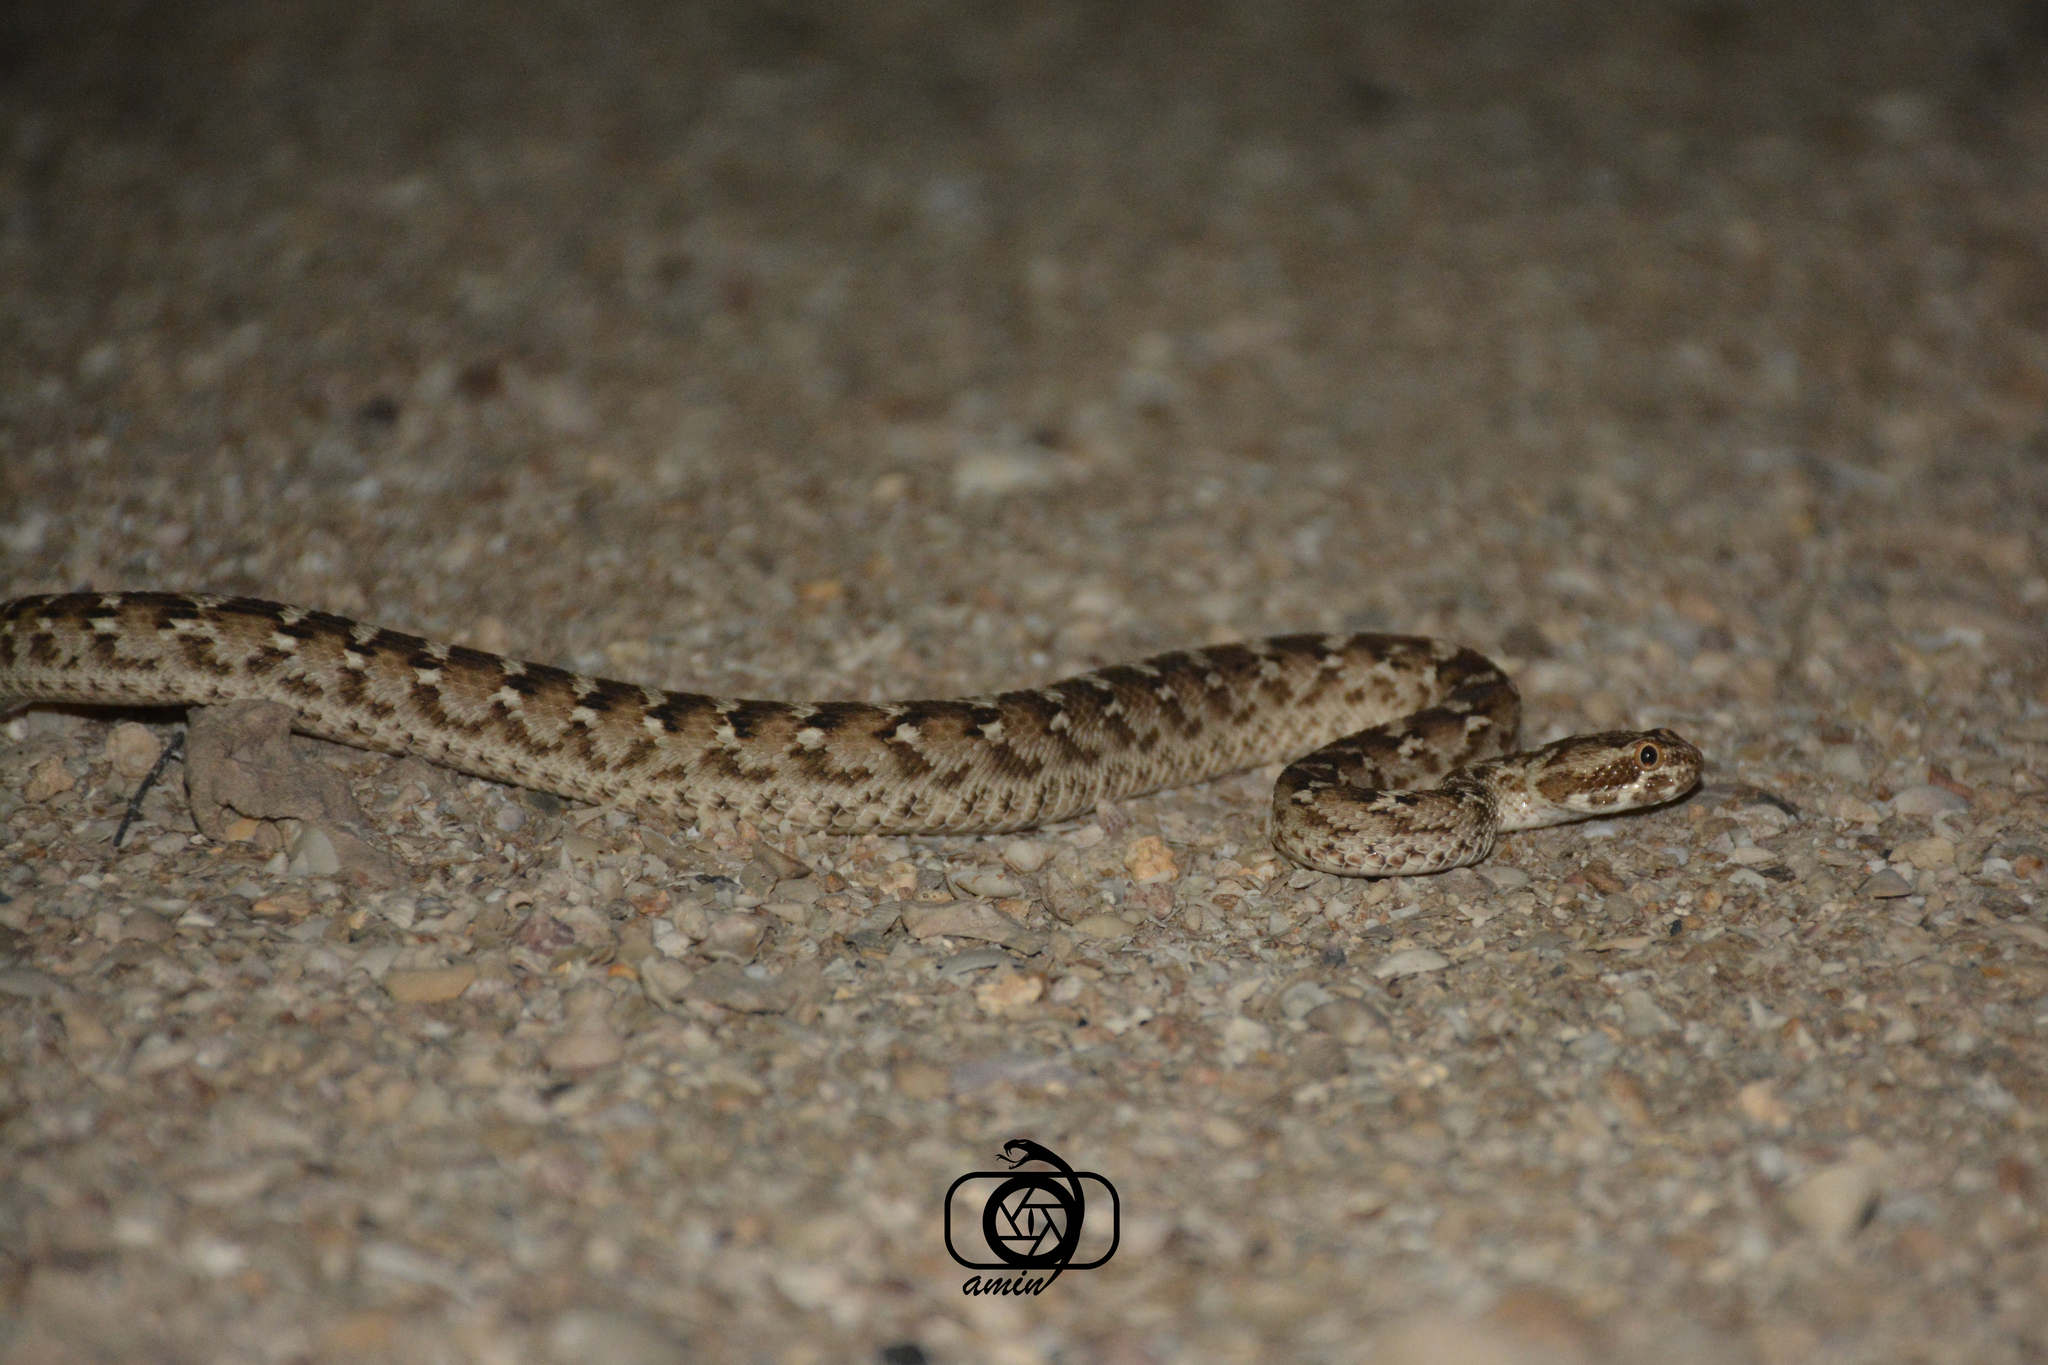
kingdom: Animalia
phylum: Chordata
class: Squamata
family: Viperidae
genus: Echis
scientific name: Echis carinatus
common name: Saw-scaled viper
